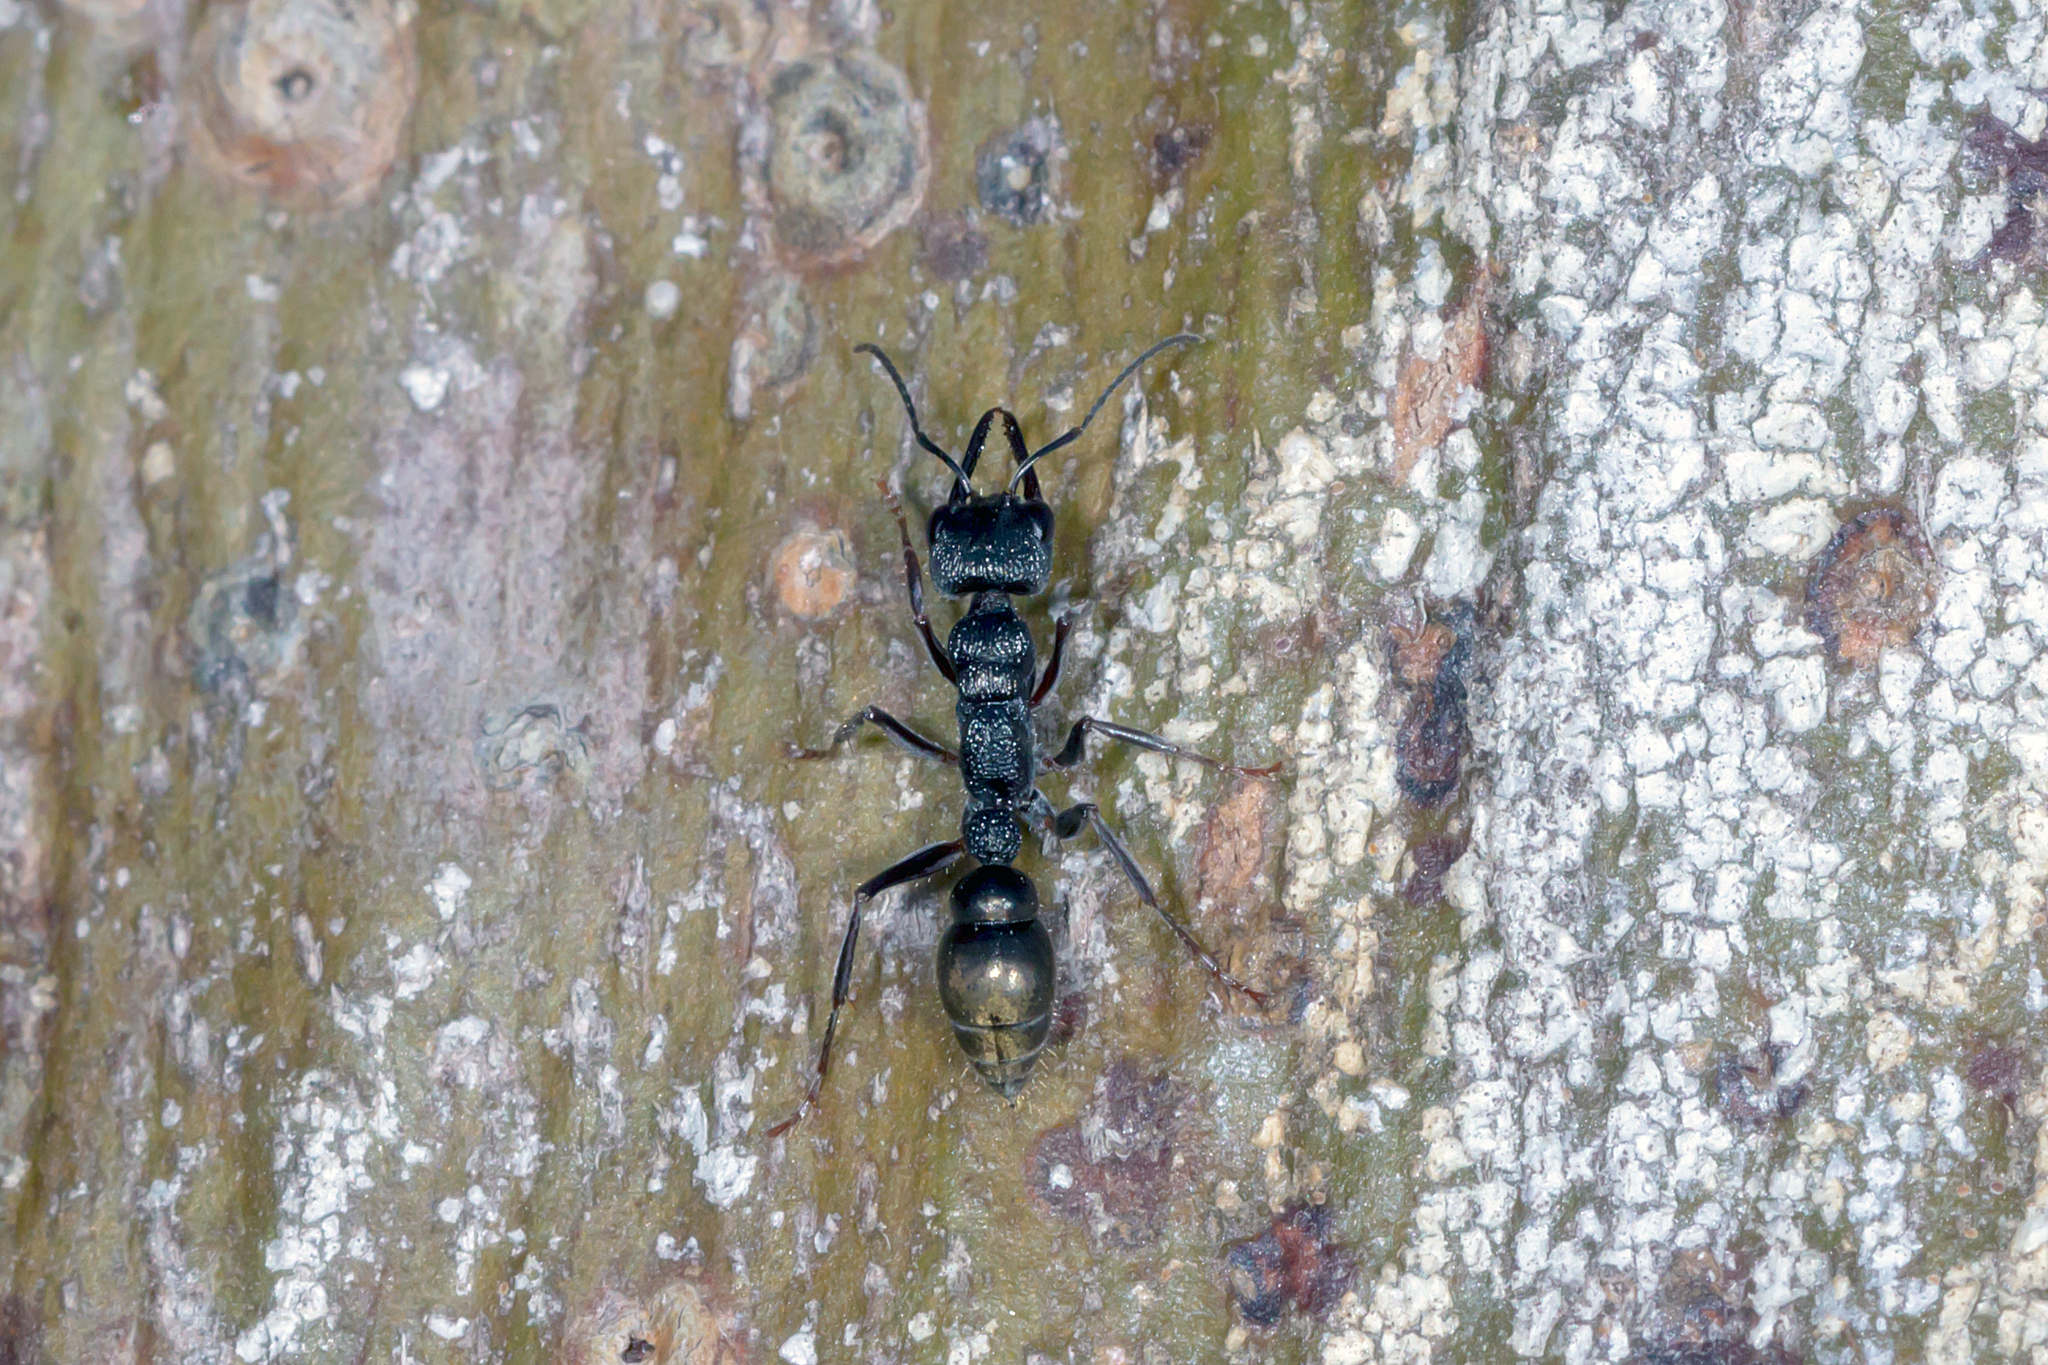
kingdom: Animalia
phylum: Arthropoda
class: Insecta
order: Hymenoptera
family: Formicidae
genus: Myrmecia
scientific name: Myrmecia piliventris
